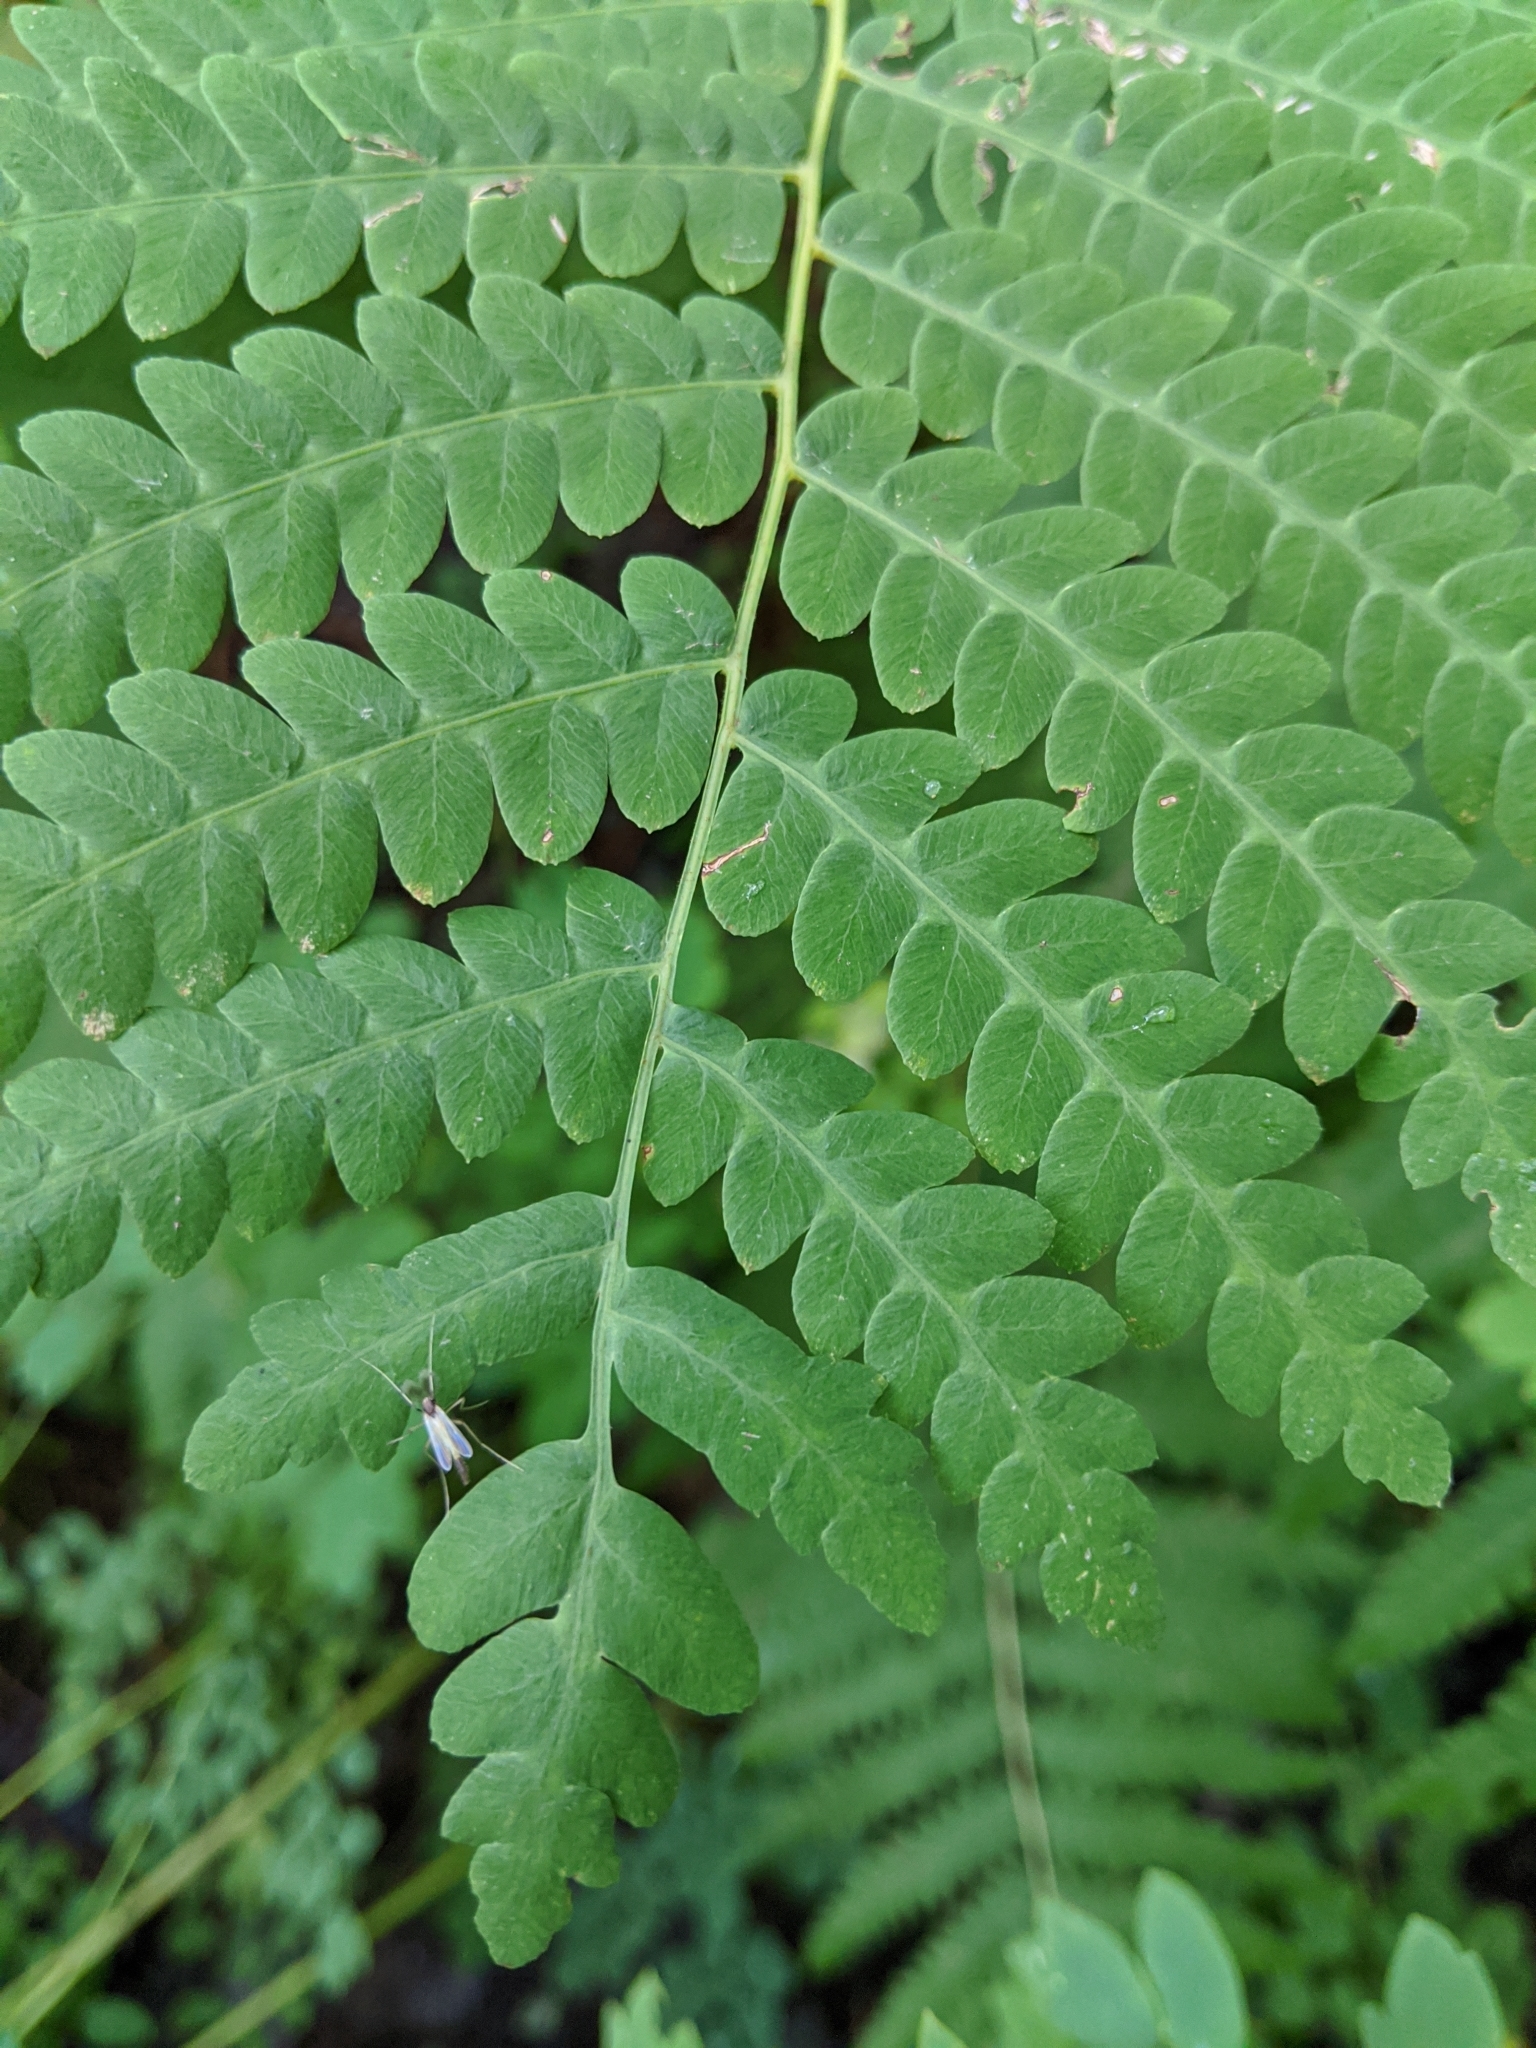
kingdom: Plantae
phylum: Tracheophyta
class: Polypodiopsida
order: Osmundales
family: Osmundaceae
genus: Claytosmunda
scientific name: Claytosmunda claytoniana
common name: Clayton's fern
